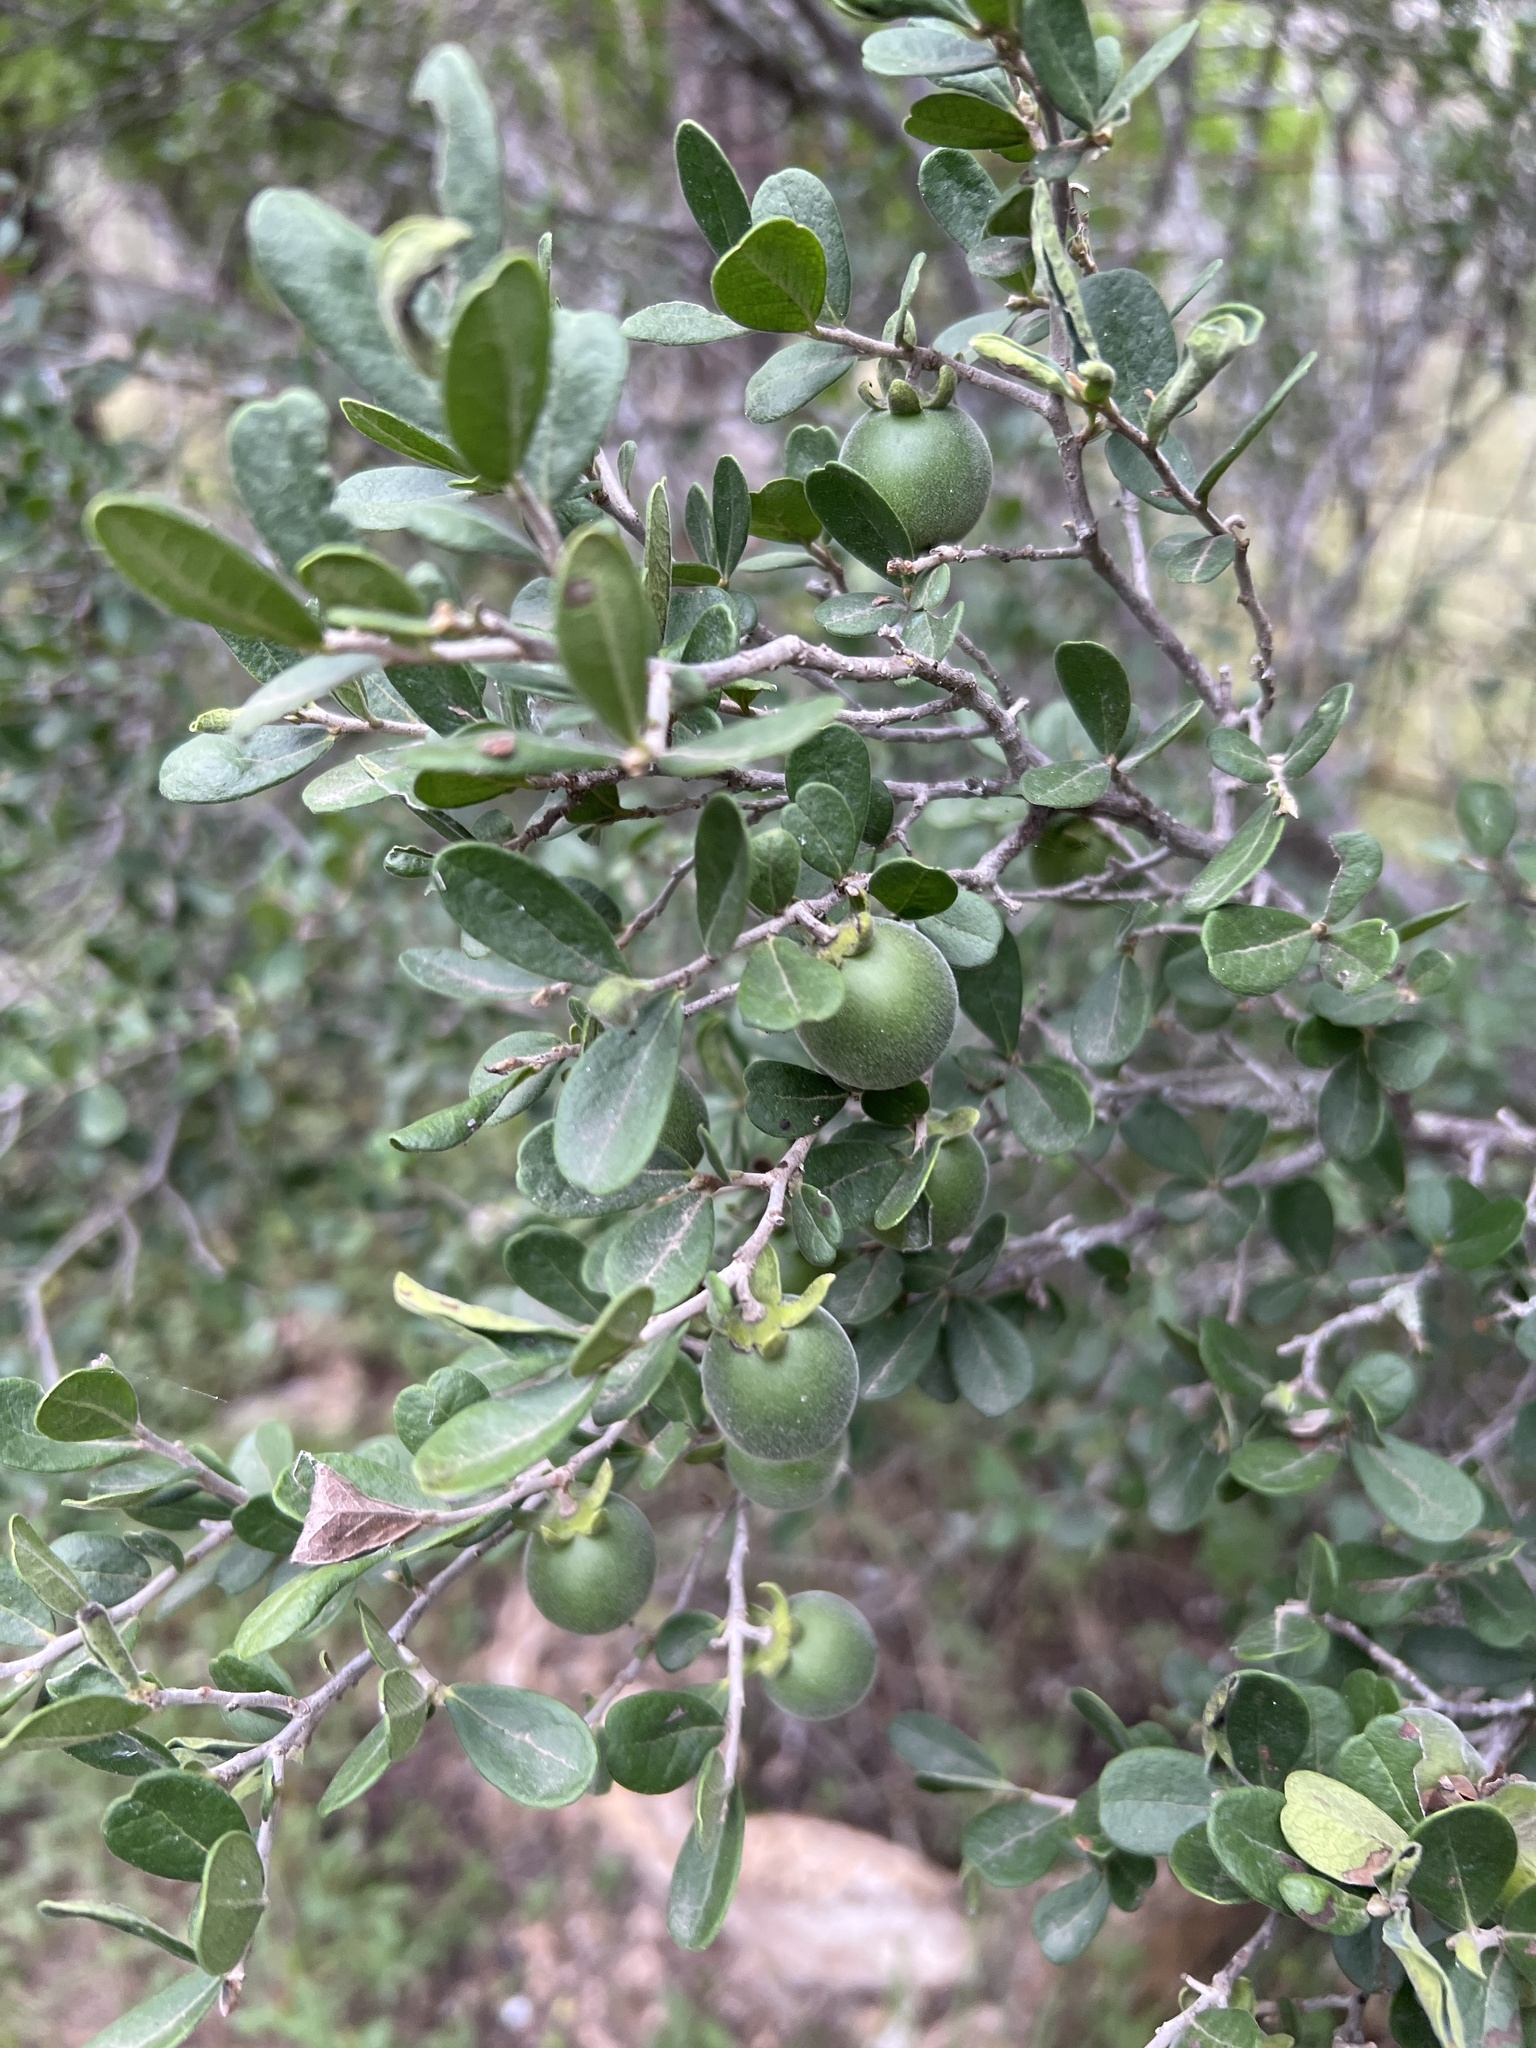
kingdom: Plantae
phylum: Tracheophyta
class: Magnoliopsida
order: Ericales
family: Ebenaceae
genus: Diospyros
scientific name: Diospyros texana
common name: Texas persimmon
